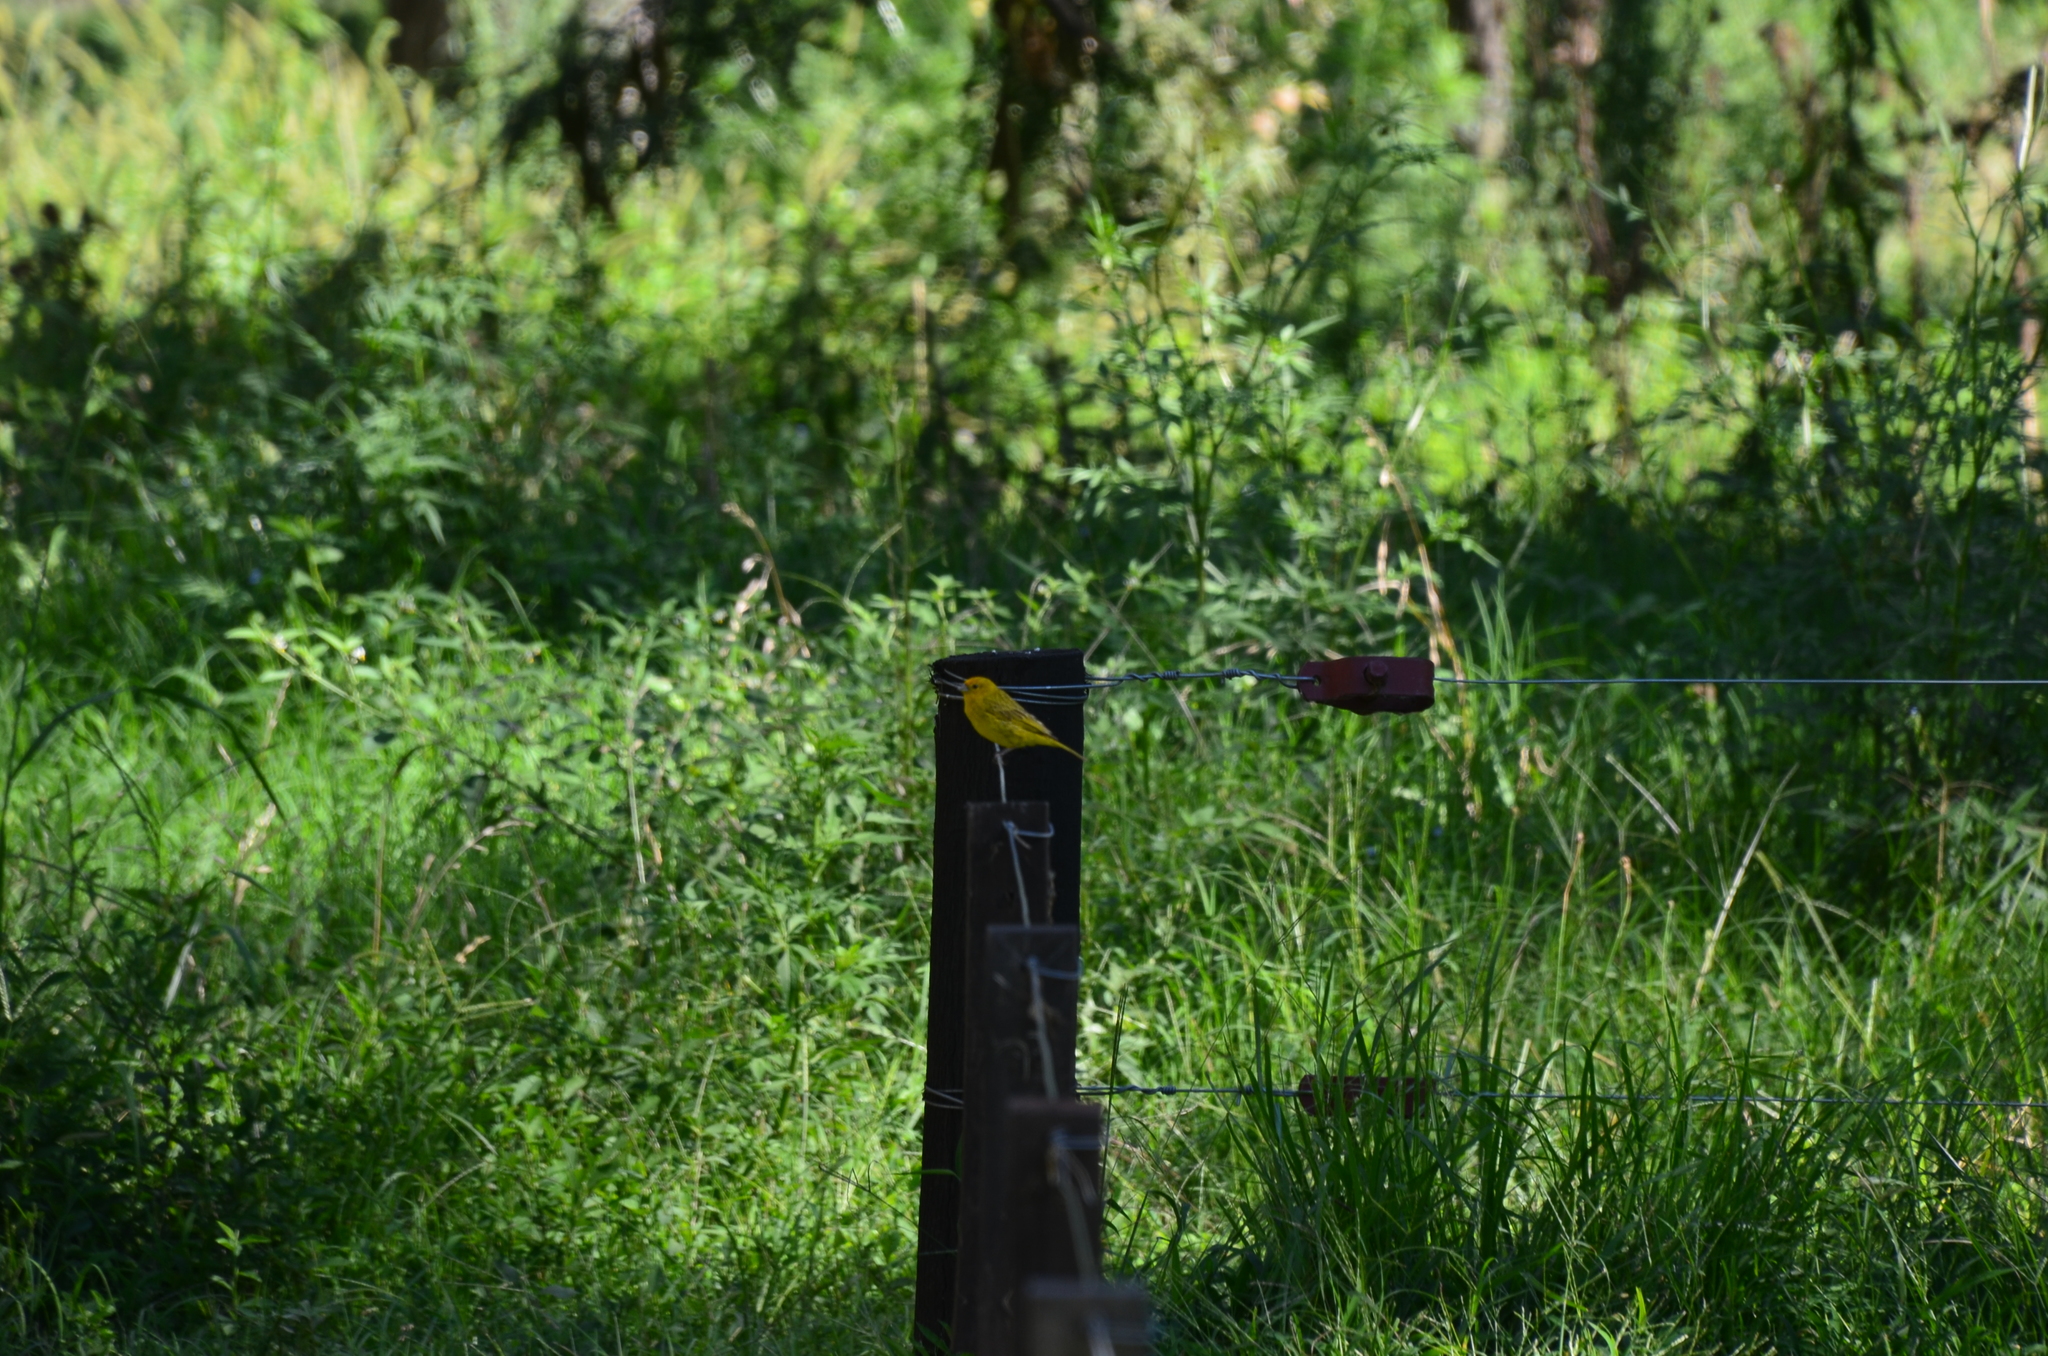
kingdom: Animalia
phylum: Chordata
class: Aves
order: Passeriformes
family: Thraupidae
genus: Sicalis
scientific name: Sicalis flaveola
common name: Saffron finch
